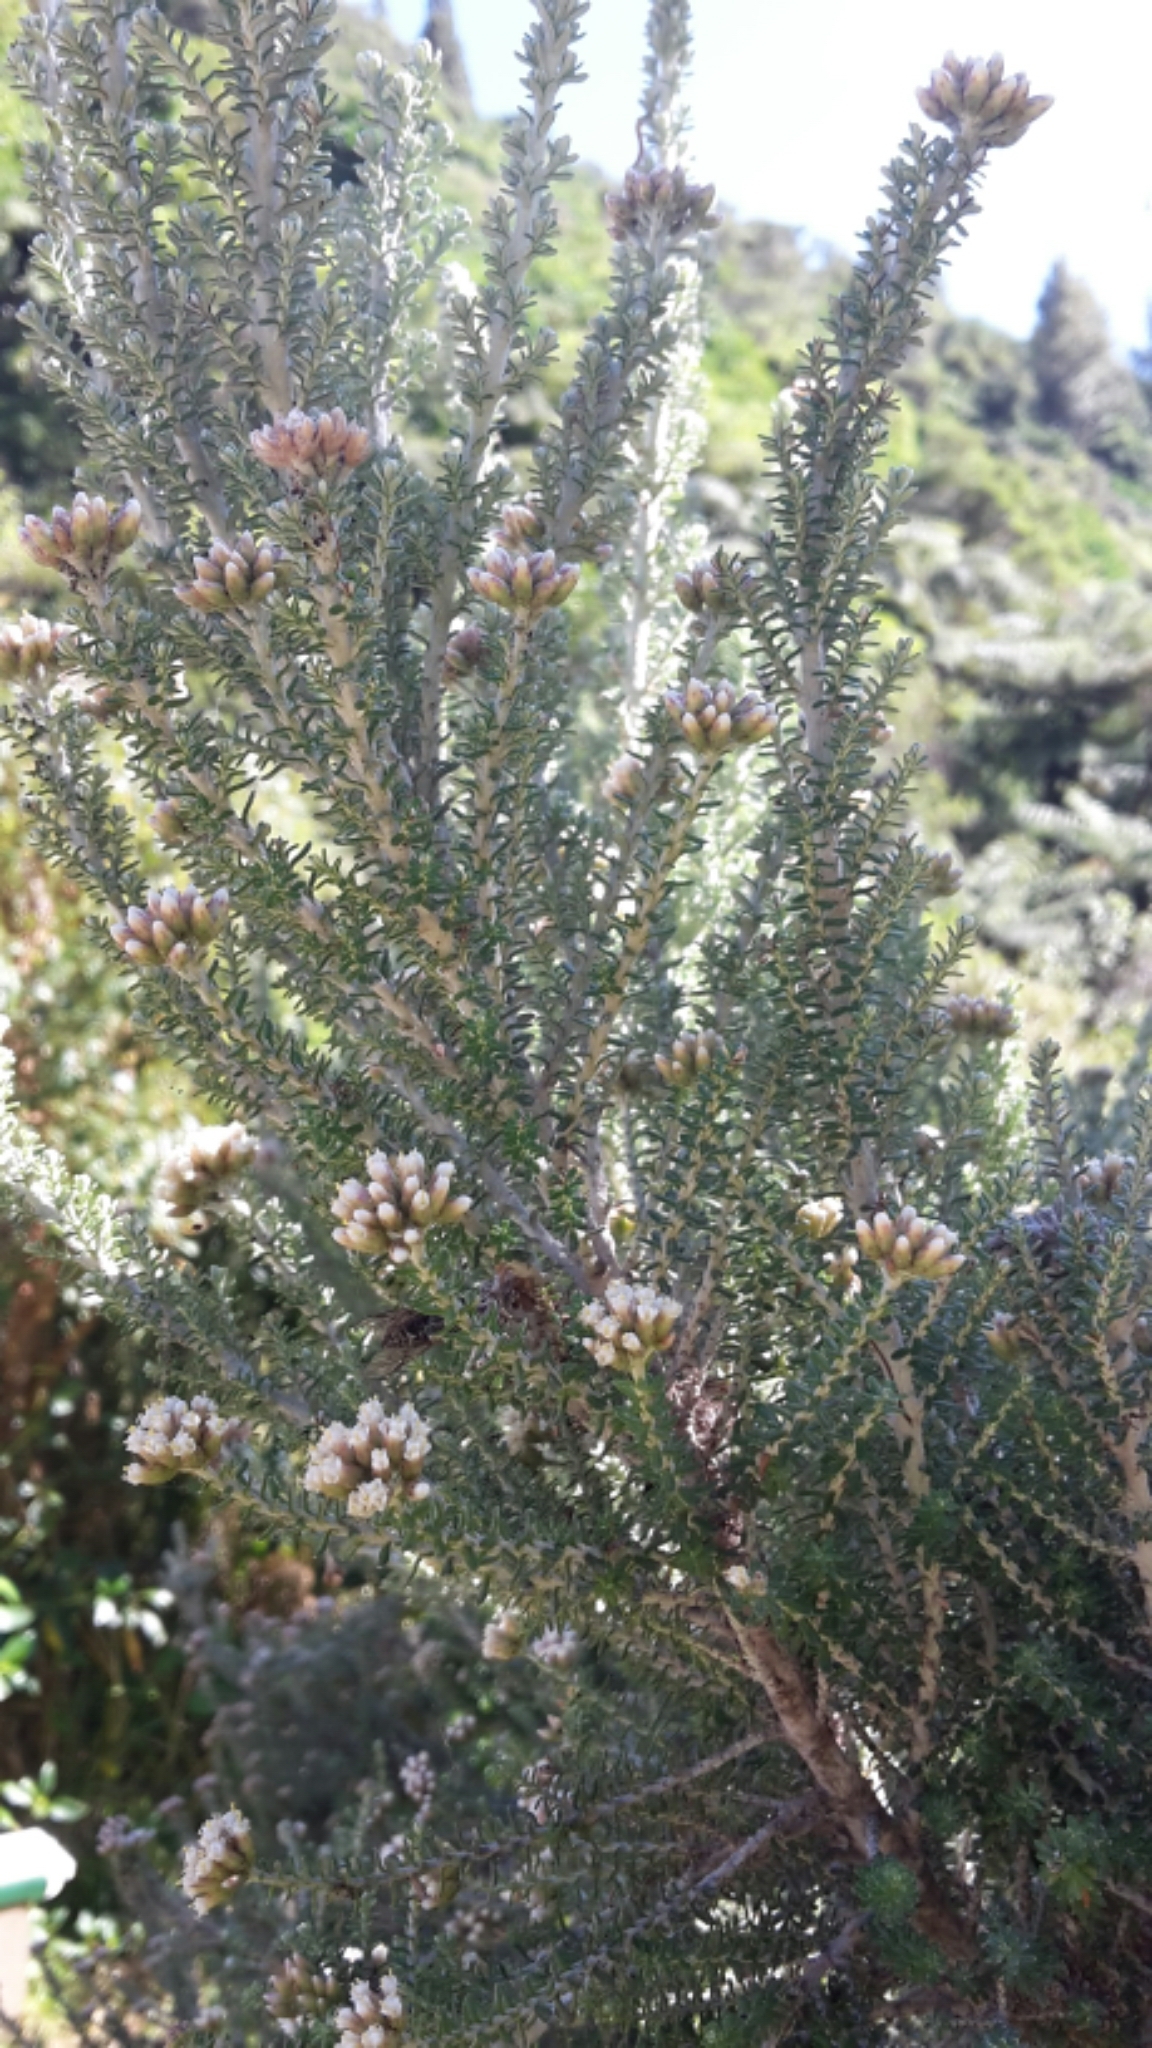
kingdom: Plantae
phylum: Tracheophyta
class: Magnoliopsida
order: Asterales
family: Asteraceae
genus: Ozothamnus
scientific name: Ozothamnus leptophyllus
